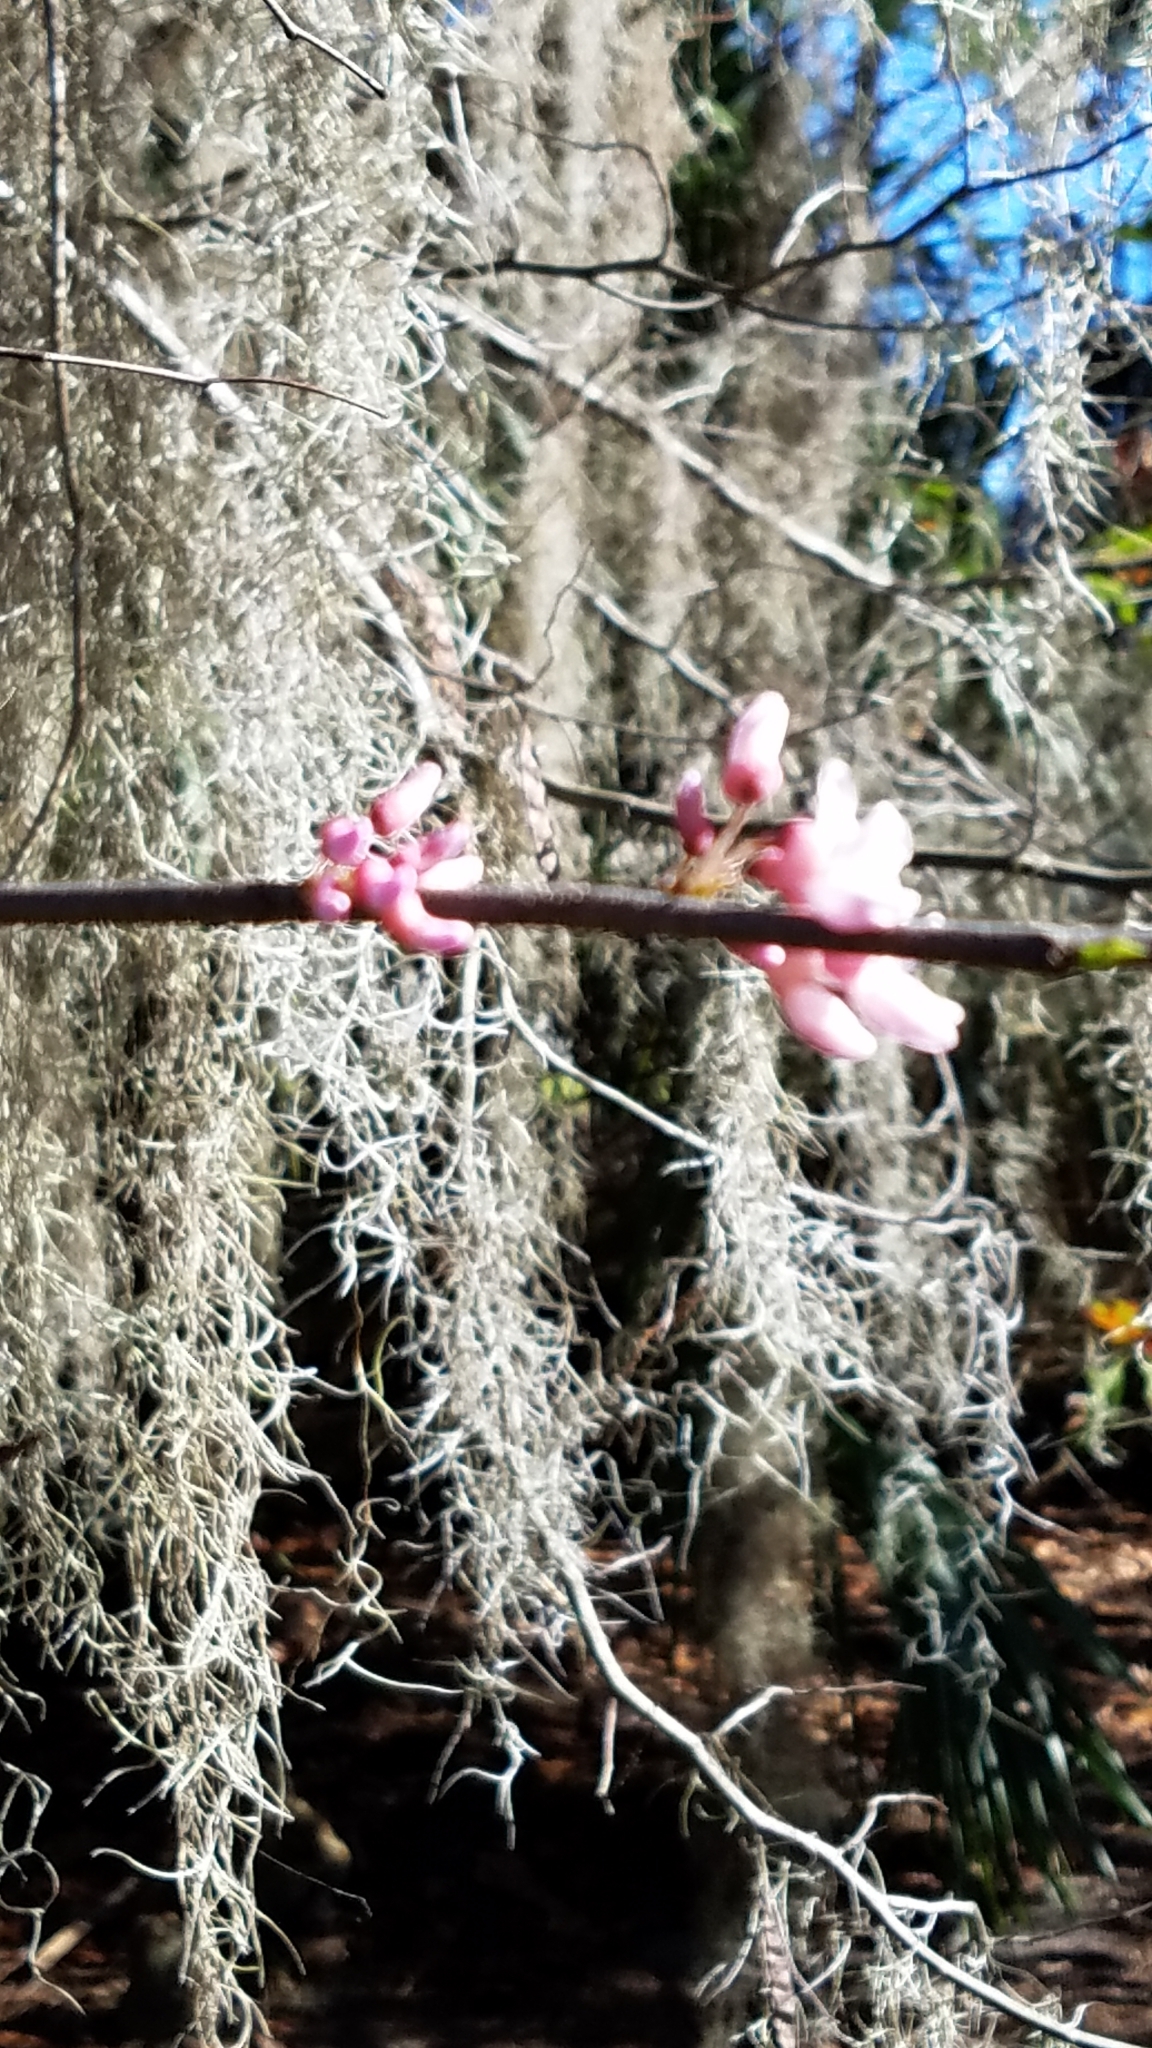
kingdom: Plantae
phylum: Tracheophyta
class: Magnoliopsida
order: Fabales
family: Fabaceae
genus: Cercis
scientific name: Cercis canadensis
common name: Eastern redbud
